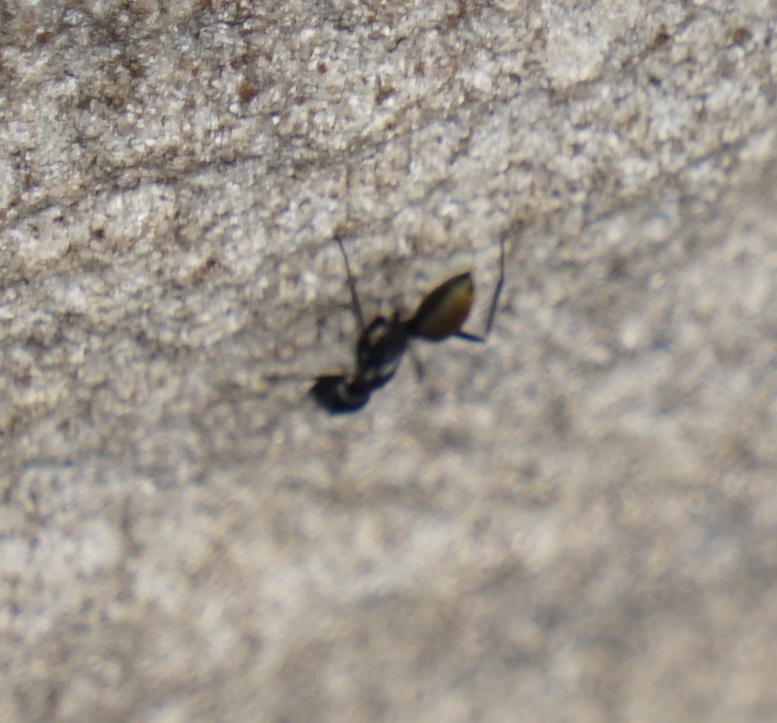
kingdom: Animalia
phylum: Arthropoda
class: Insecta
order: Hymenoptera
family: Formicidae
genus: Camponotus
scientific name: Camponotus aeneopilosus
